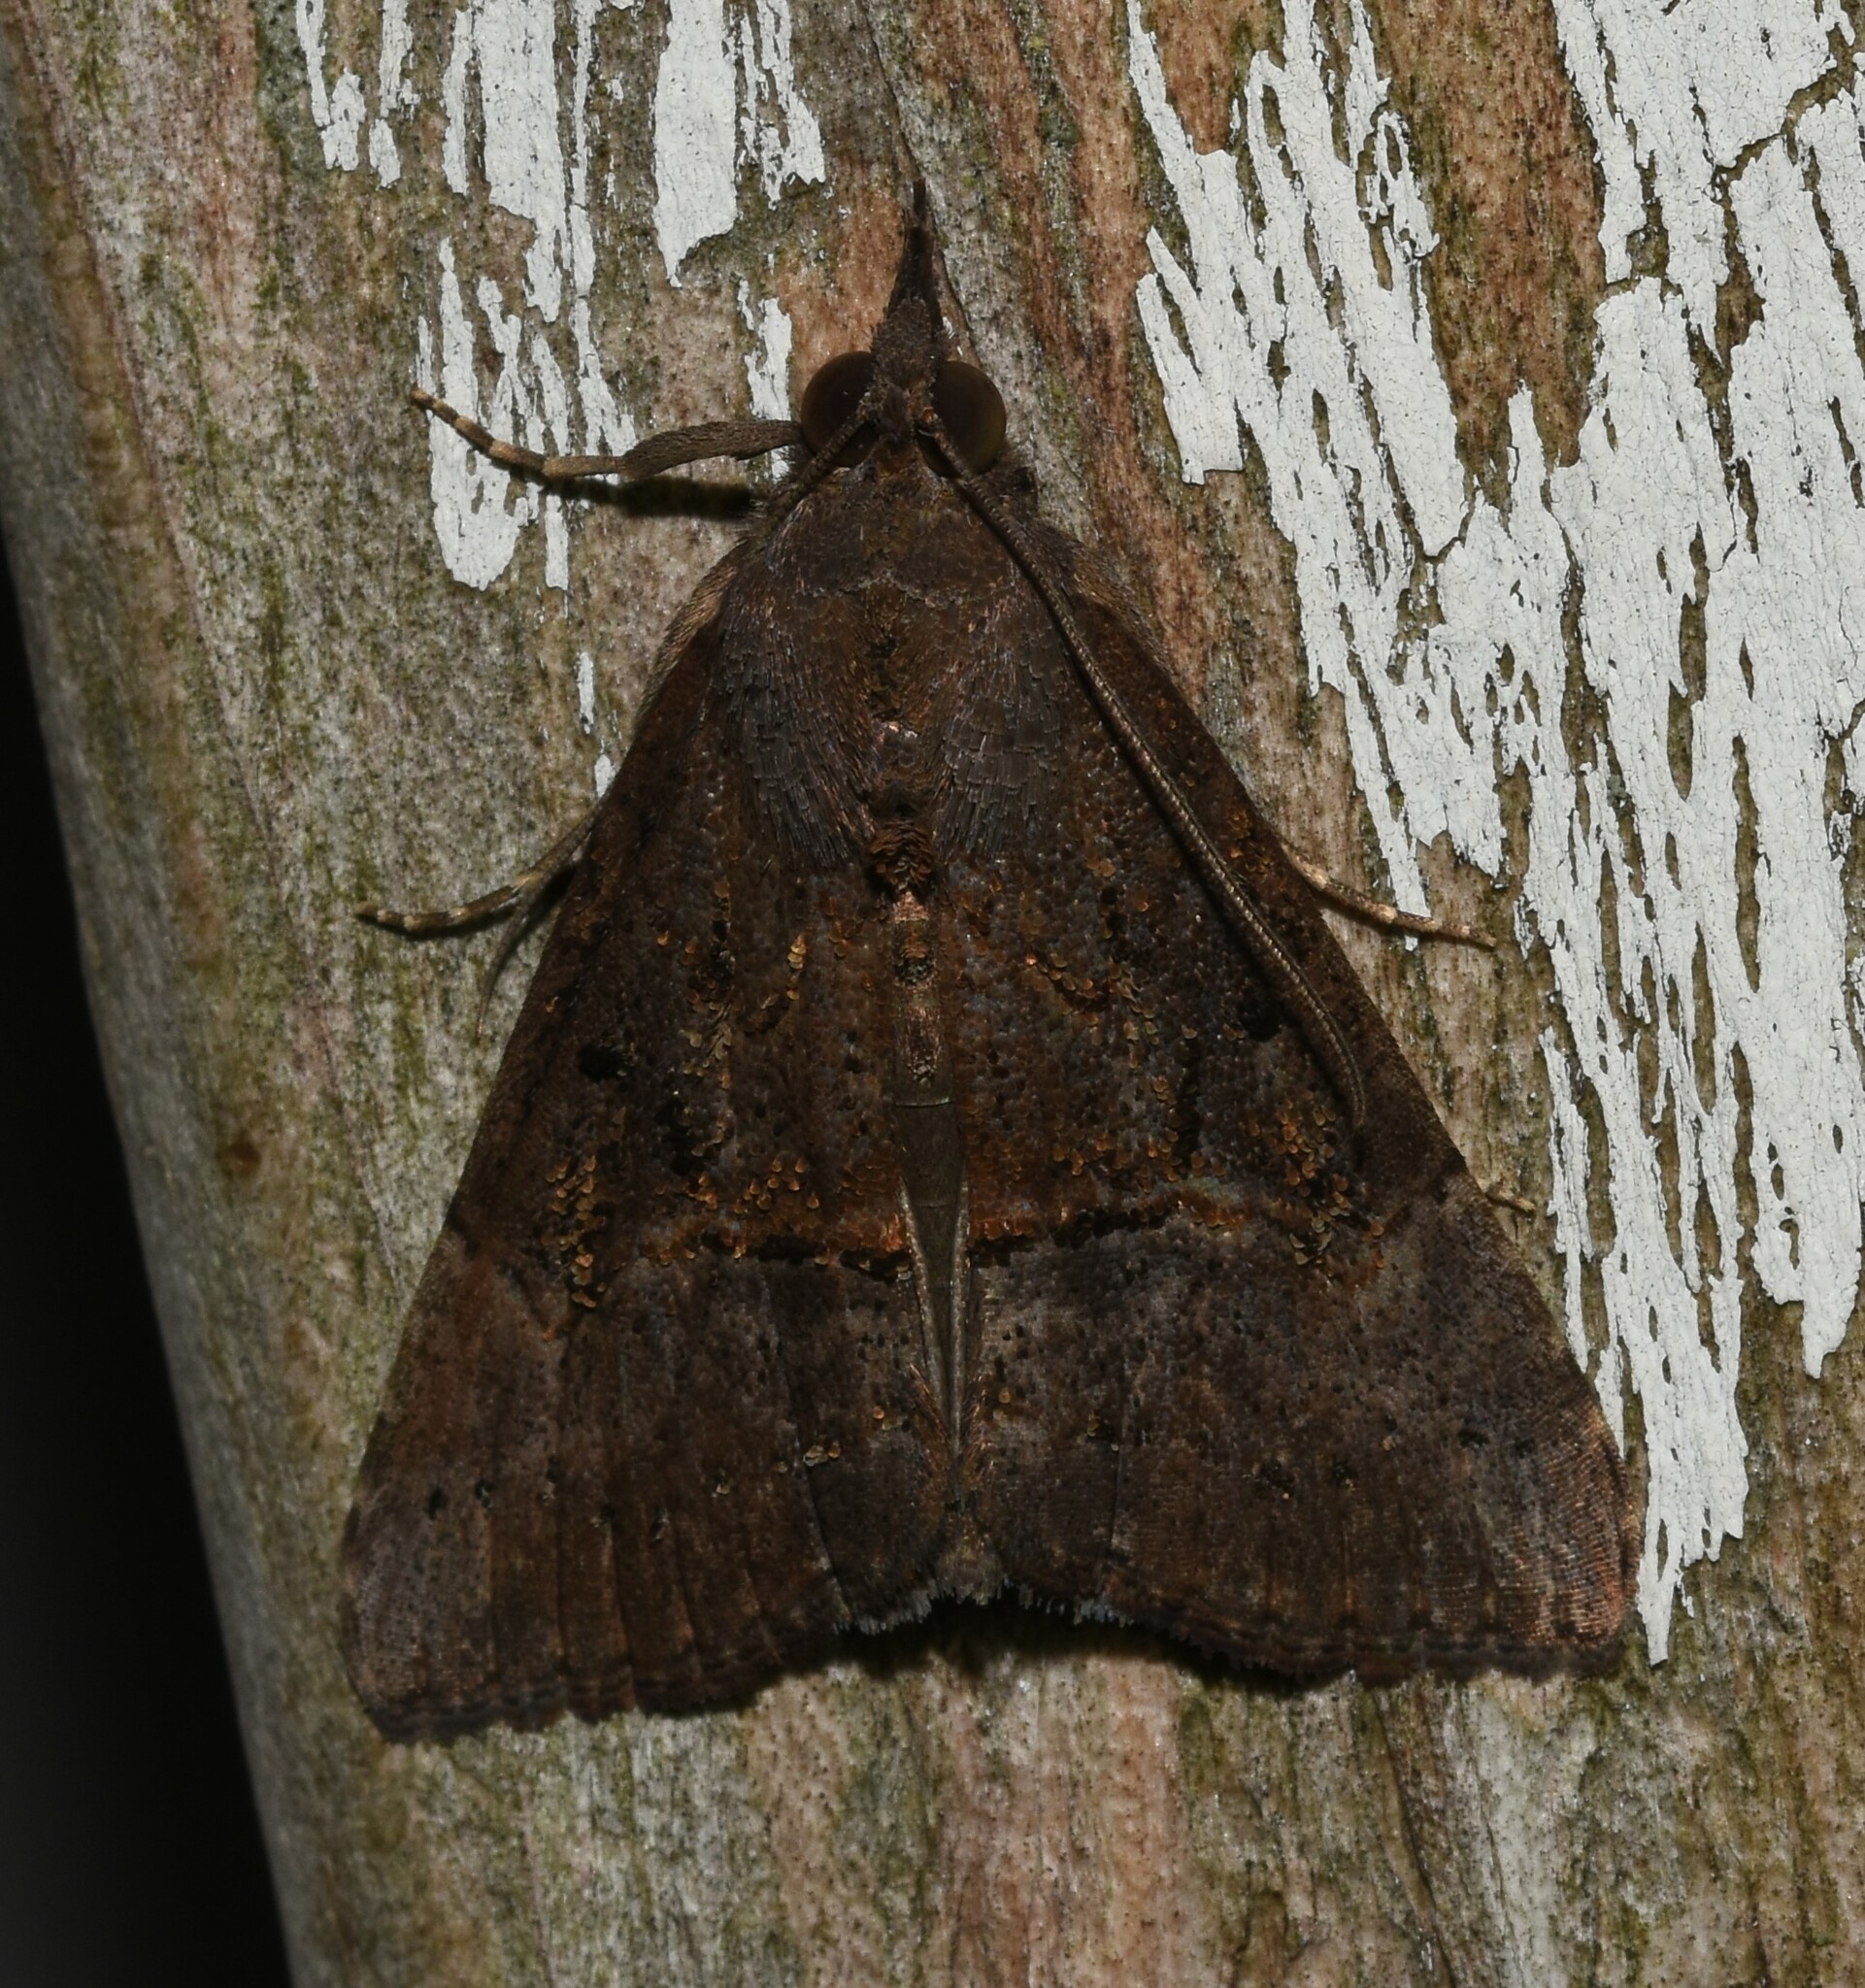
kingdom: Animalia
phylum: Arthropoda
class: Insecta
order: Lepidoptera
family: Erebidae
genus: Hypena
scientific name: Hypena scabra
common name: Green cloverworm
